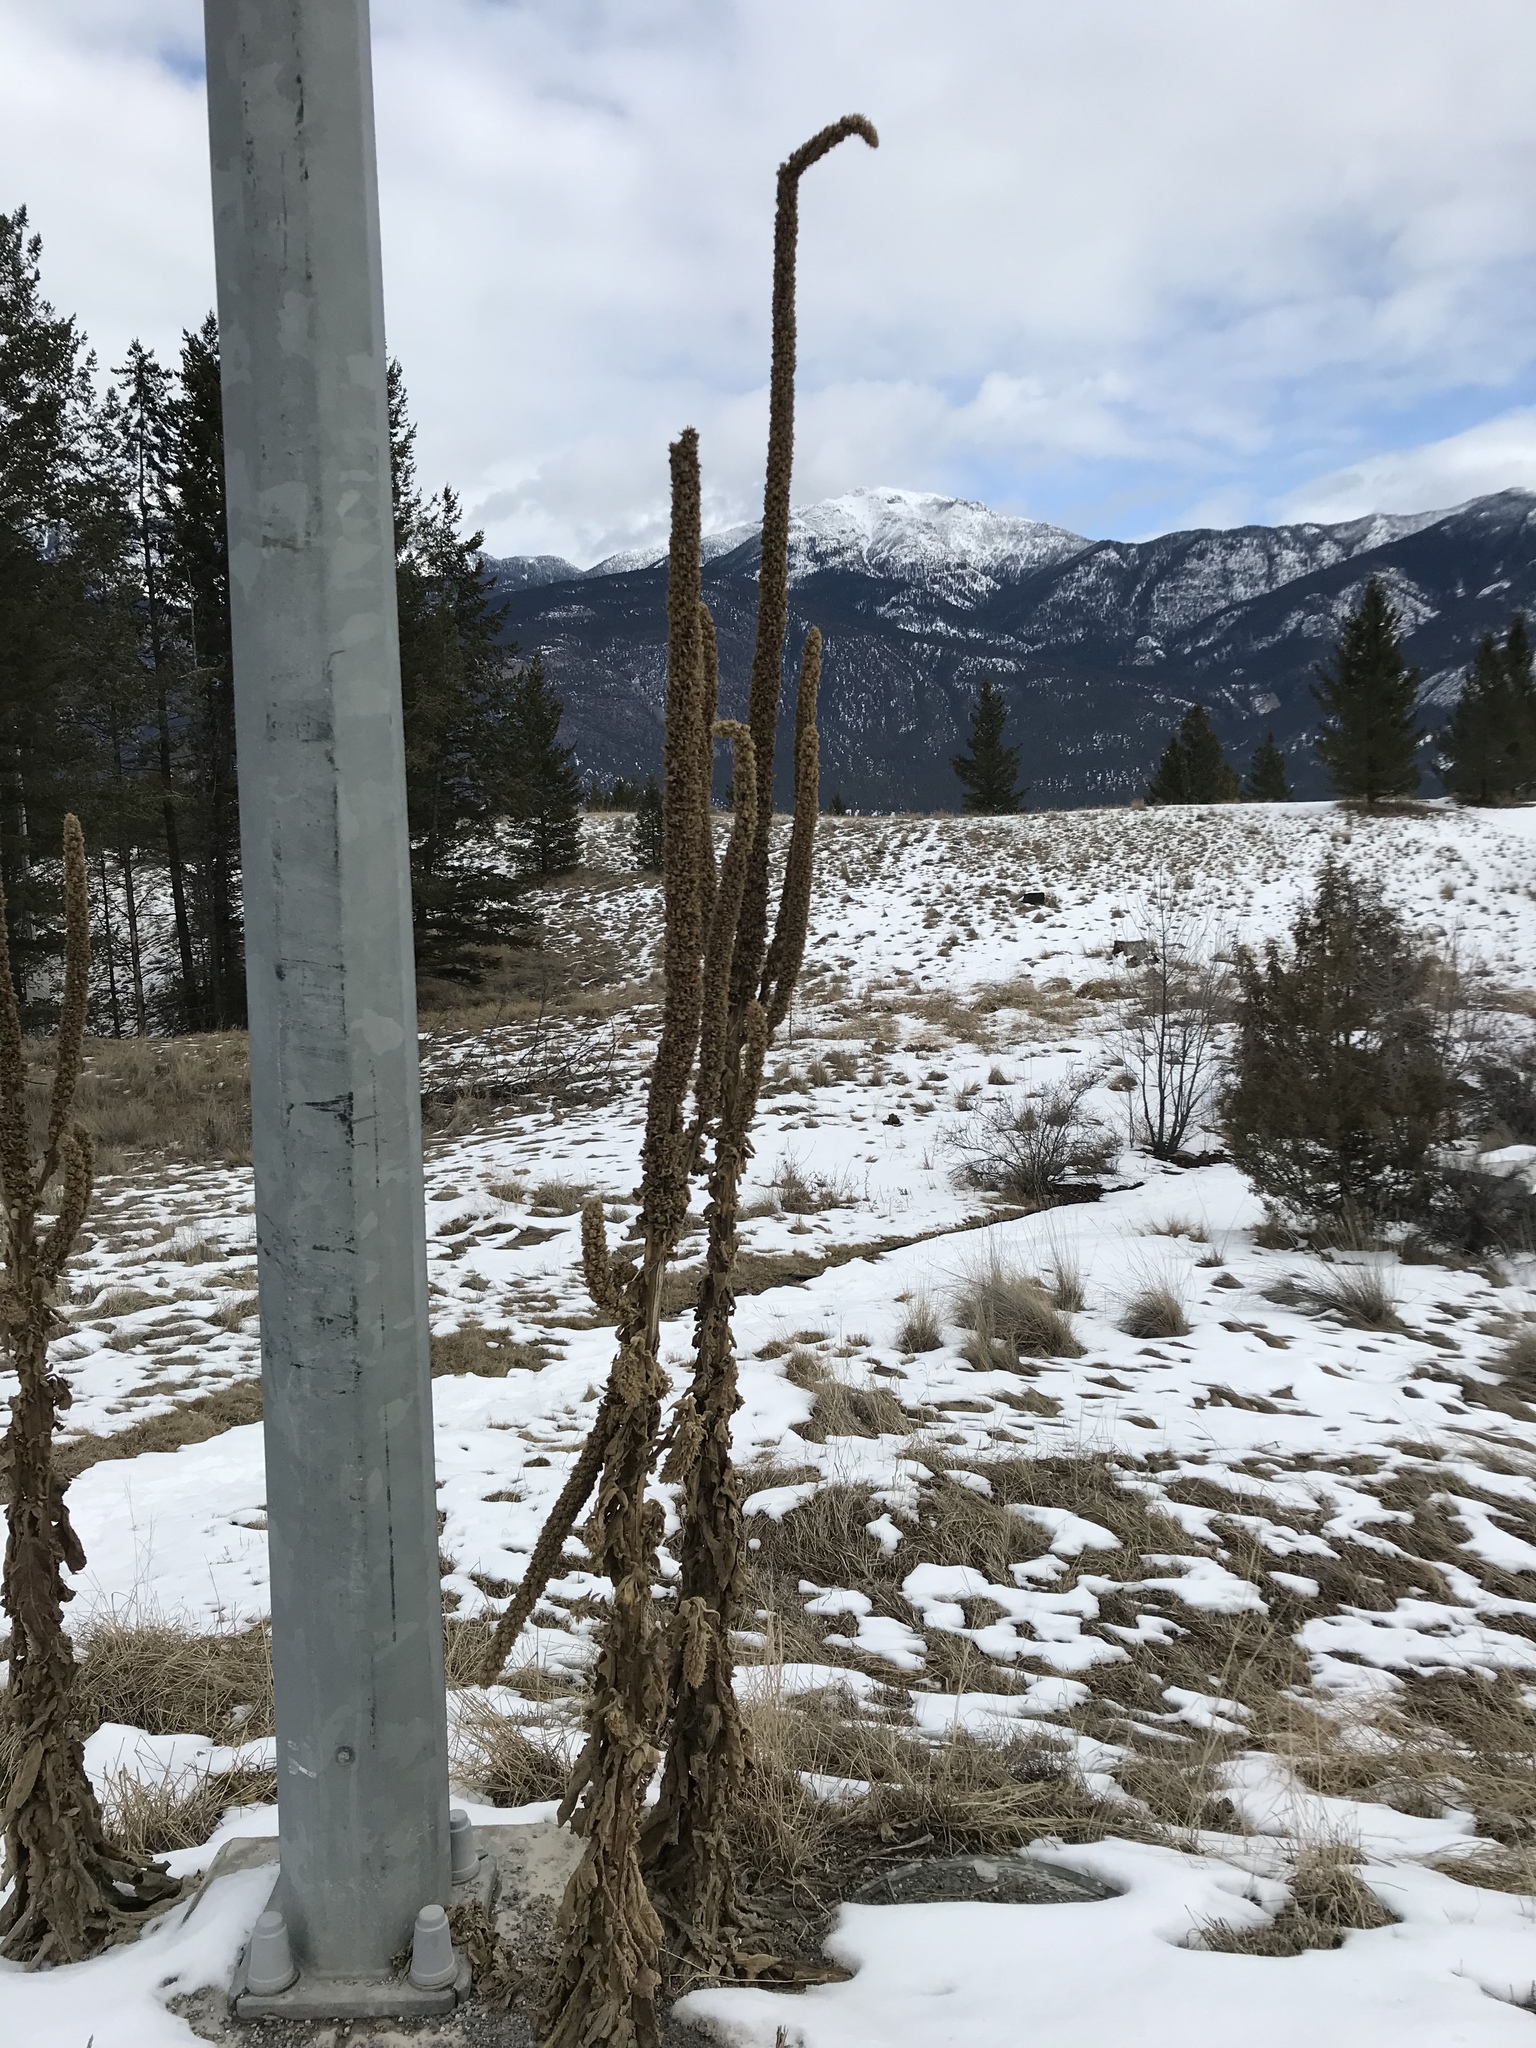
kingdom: Plantae
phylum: Tracheophyta
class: Magnoliopsida
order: Lamiales
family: Scrophulariaceae
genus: Verbascum
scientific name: Verbascum thapsus
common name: Common mullein
